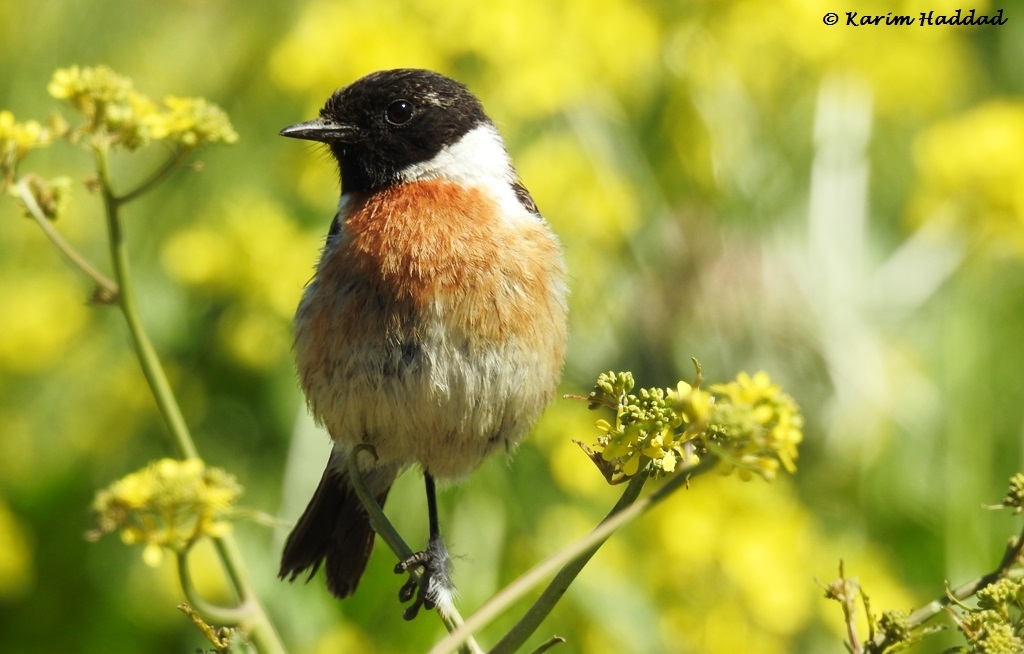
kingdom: Animalia
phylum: Chordata
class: Aves
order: Passeriformes
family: Muscicapidae
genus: Saxicola
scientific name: Saxicola rubicola
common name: European stonechat
